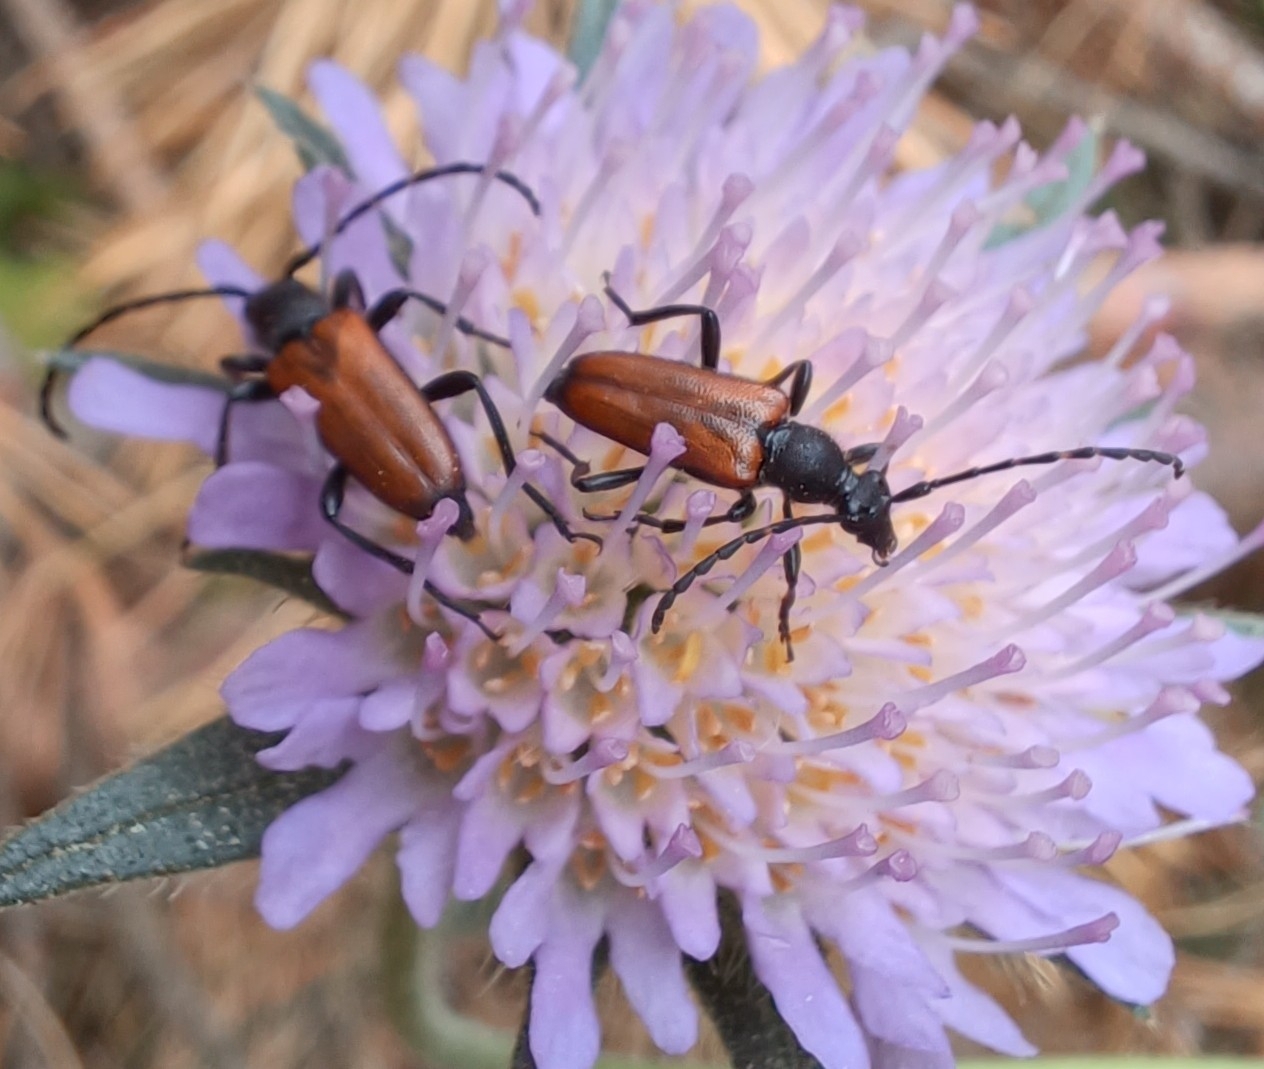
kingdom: Animalia
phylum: Arthropoda
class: Insecta
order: Coleoptera
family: Cerambycidae
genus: Paracorymbia
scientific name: Paracorymbia maculicornis
